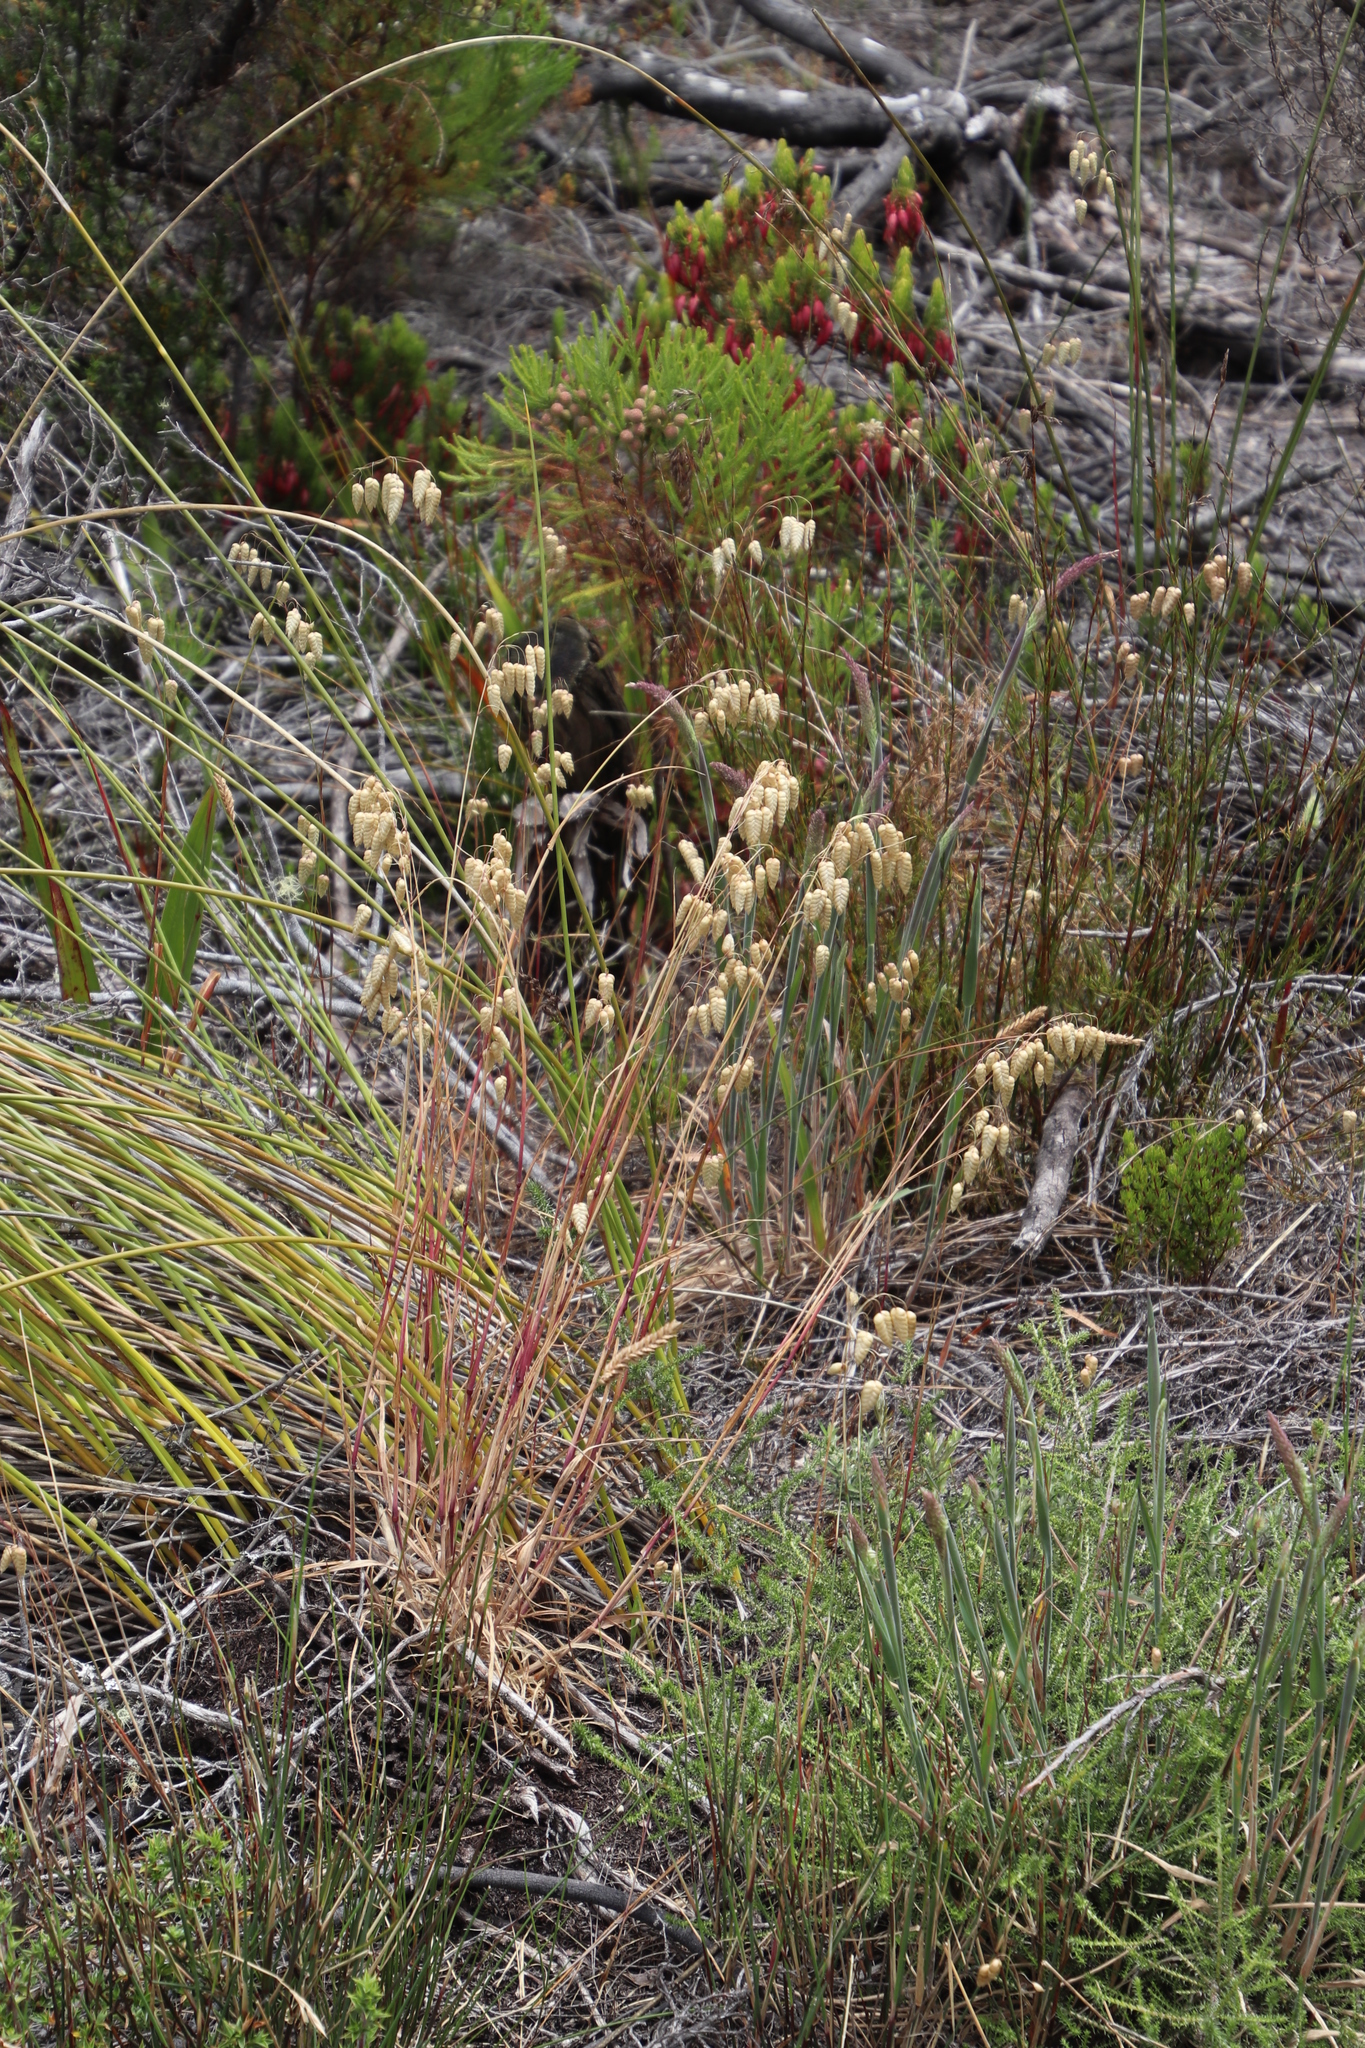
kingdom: Plantae
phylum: Tracheophyta
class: Liliopsida
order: Poales
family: Poaceae
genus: Briza
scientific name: Briza maxima
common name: Big quakinggrass
